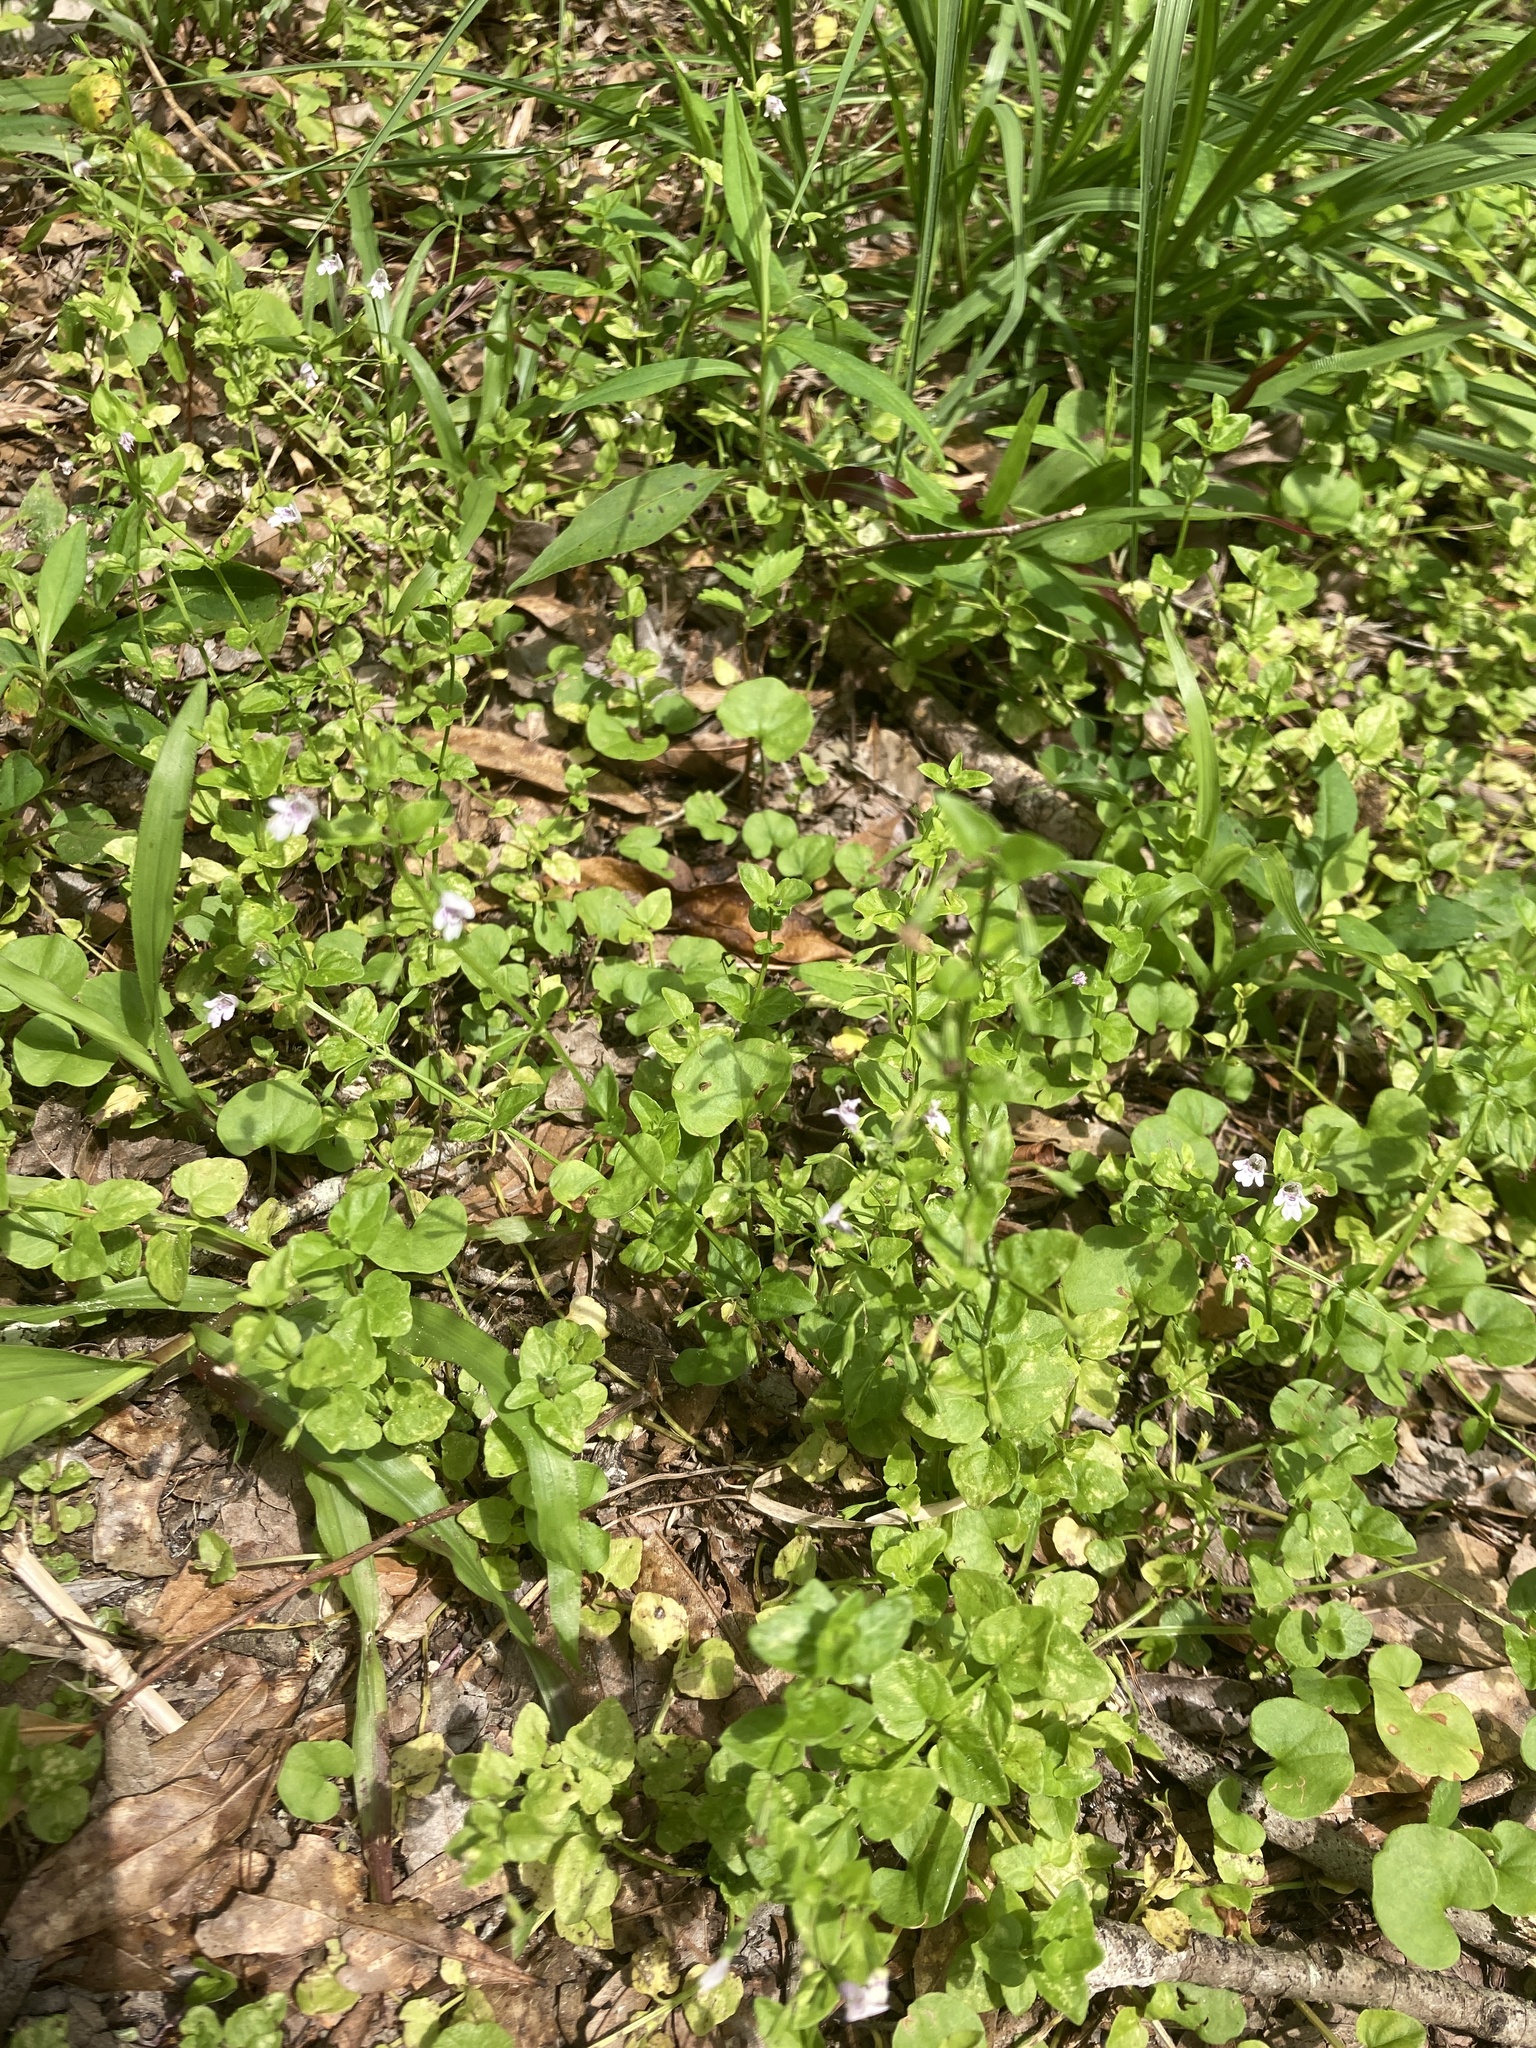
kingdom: Plantae
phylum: Tracheophyta
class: Magnoliopsida
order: Lamiales
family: Lamiaceae
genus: Clinopodium
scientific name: Clinopodium brownei
